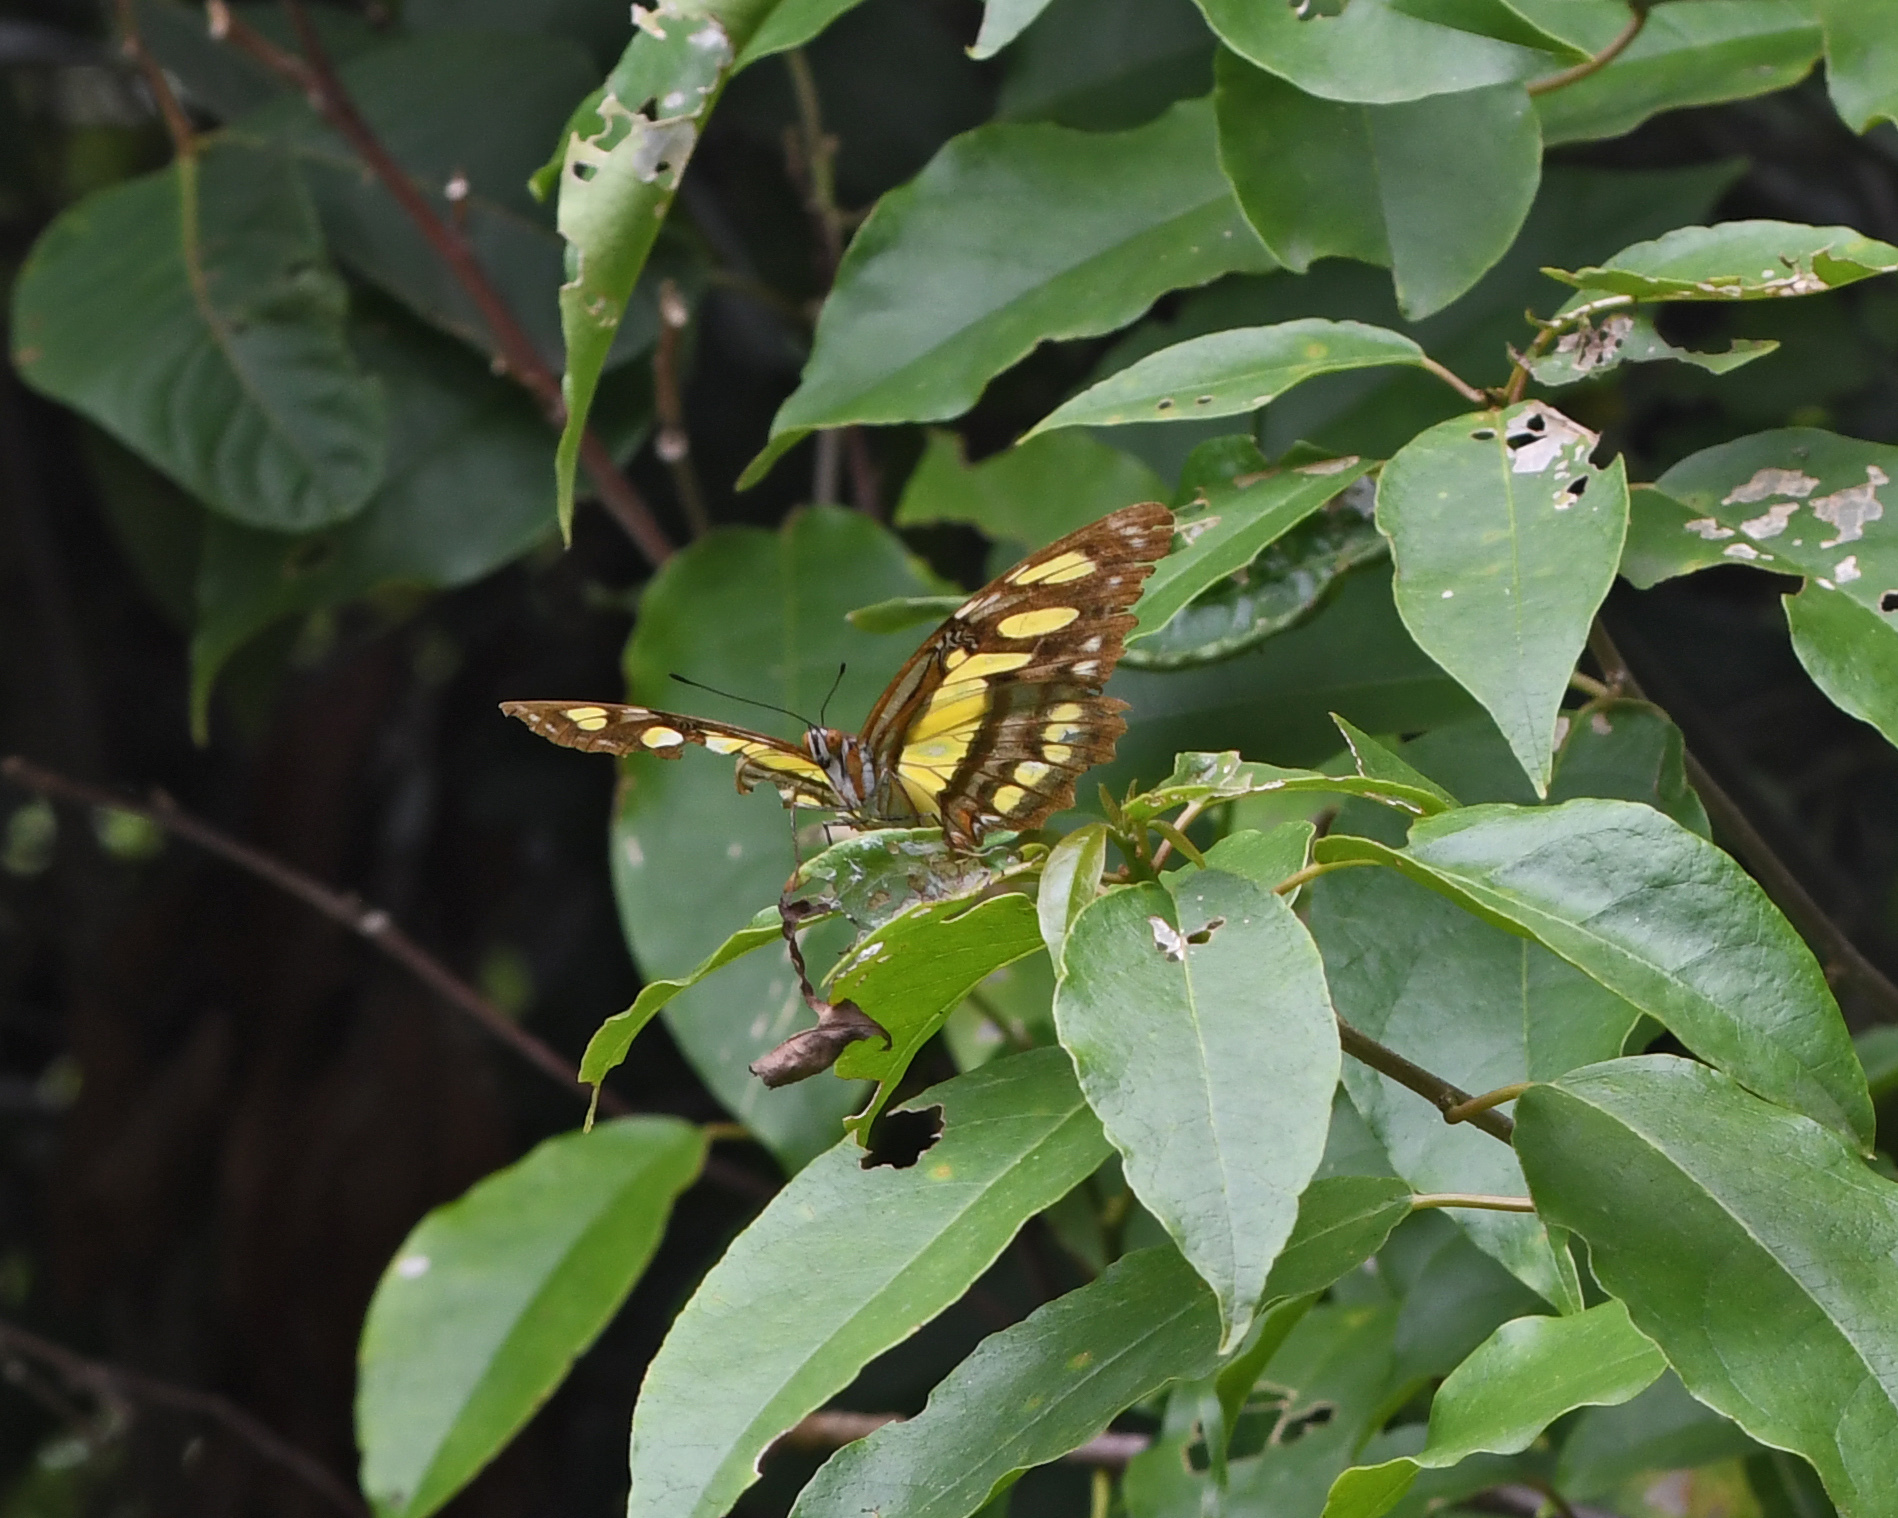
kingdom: Animalia
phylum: Arthropoda
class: Insecta
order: Lepidoptera
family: Nymphalidae
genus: Siproeta
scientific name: Siproeta stelenes
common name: Malachite
